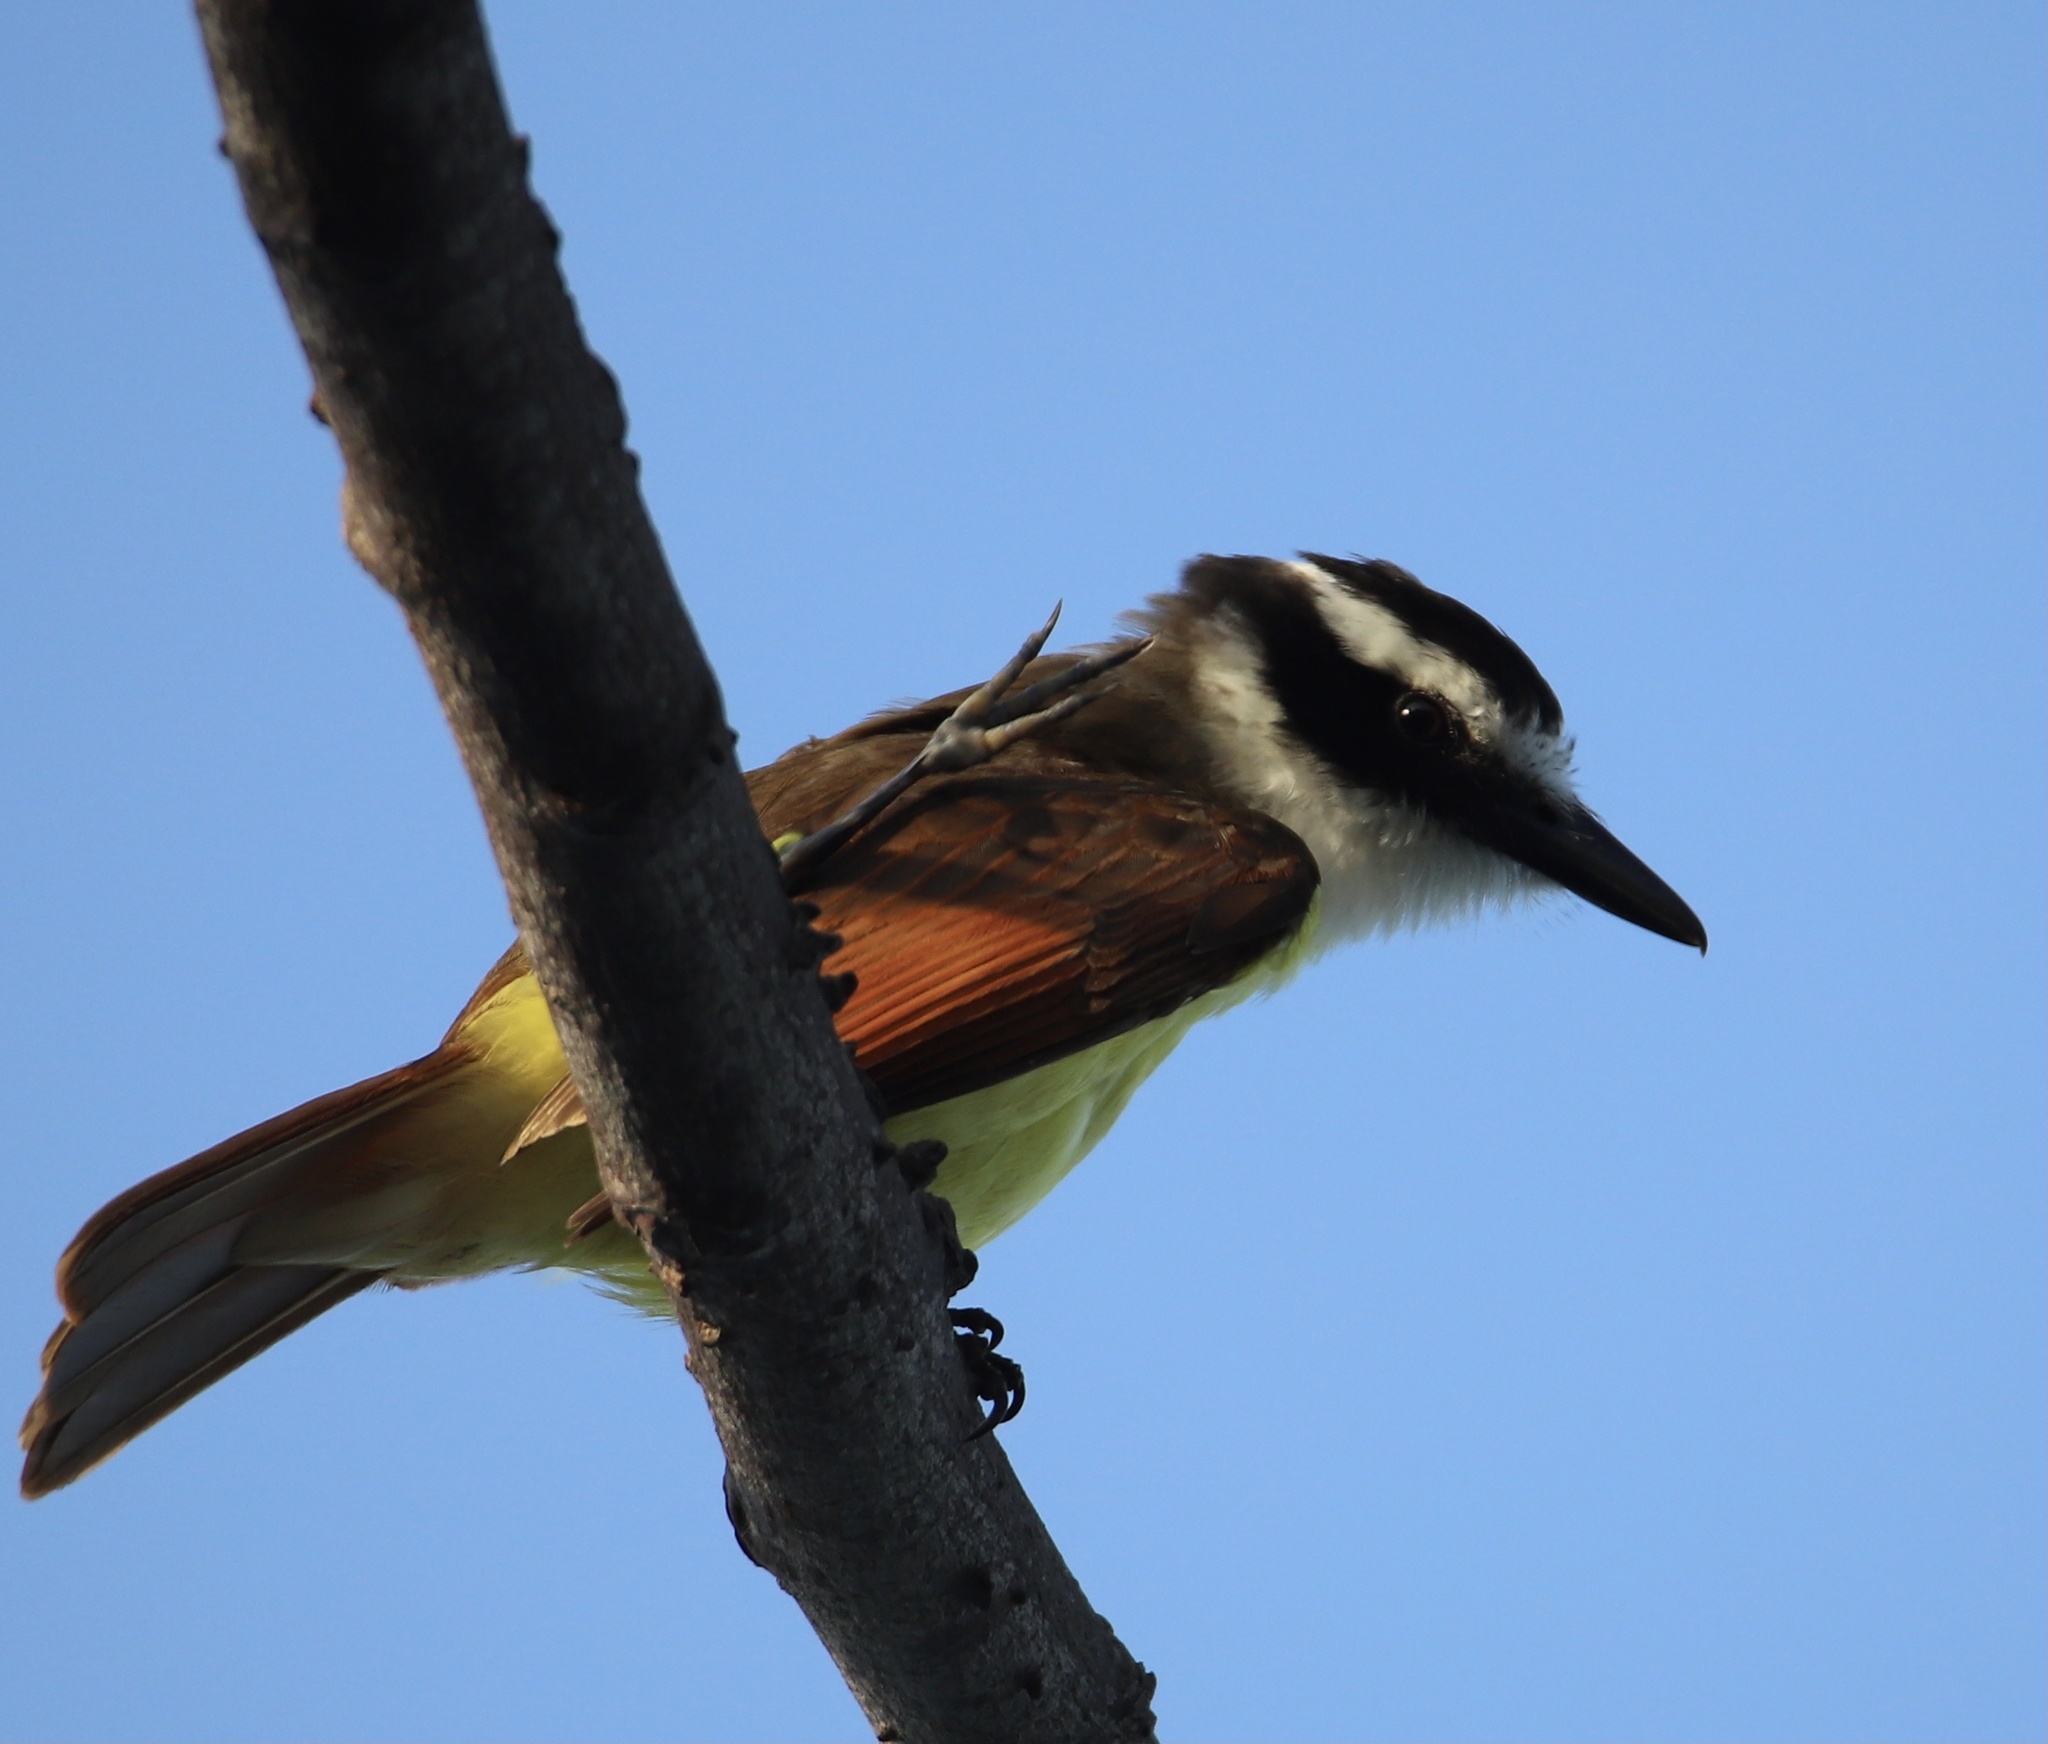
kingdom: Animalia
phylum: Chordata
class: Aves
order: Passeriformes
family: Tyrannidae
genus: Pitangus
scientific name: Pitangus sulphuratus
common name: Great kiskadee
